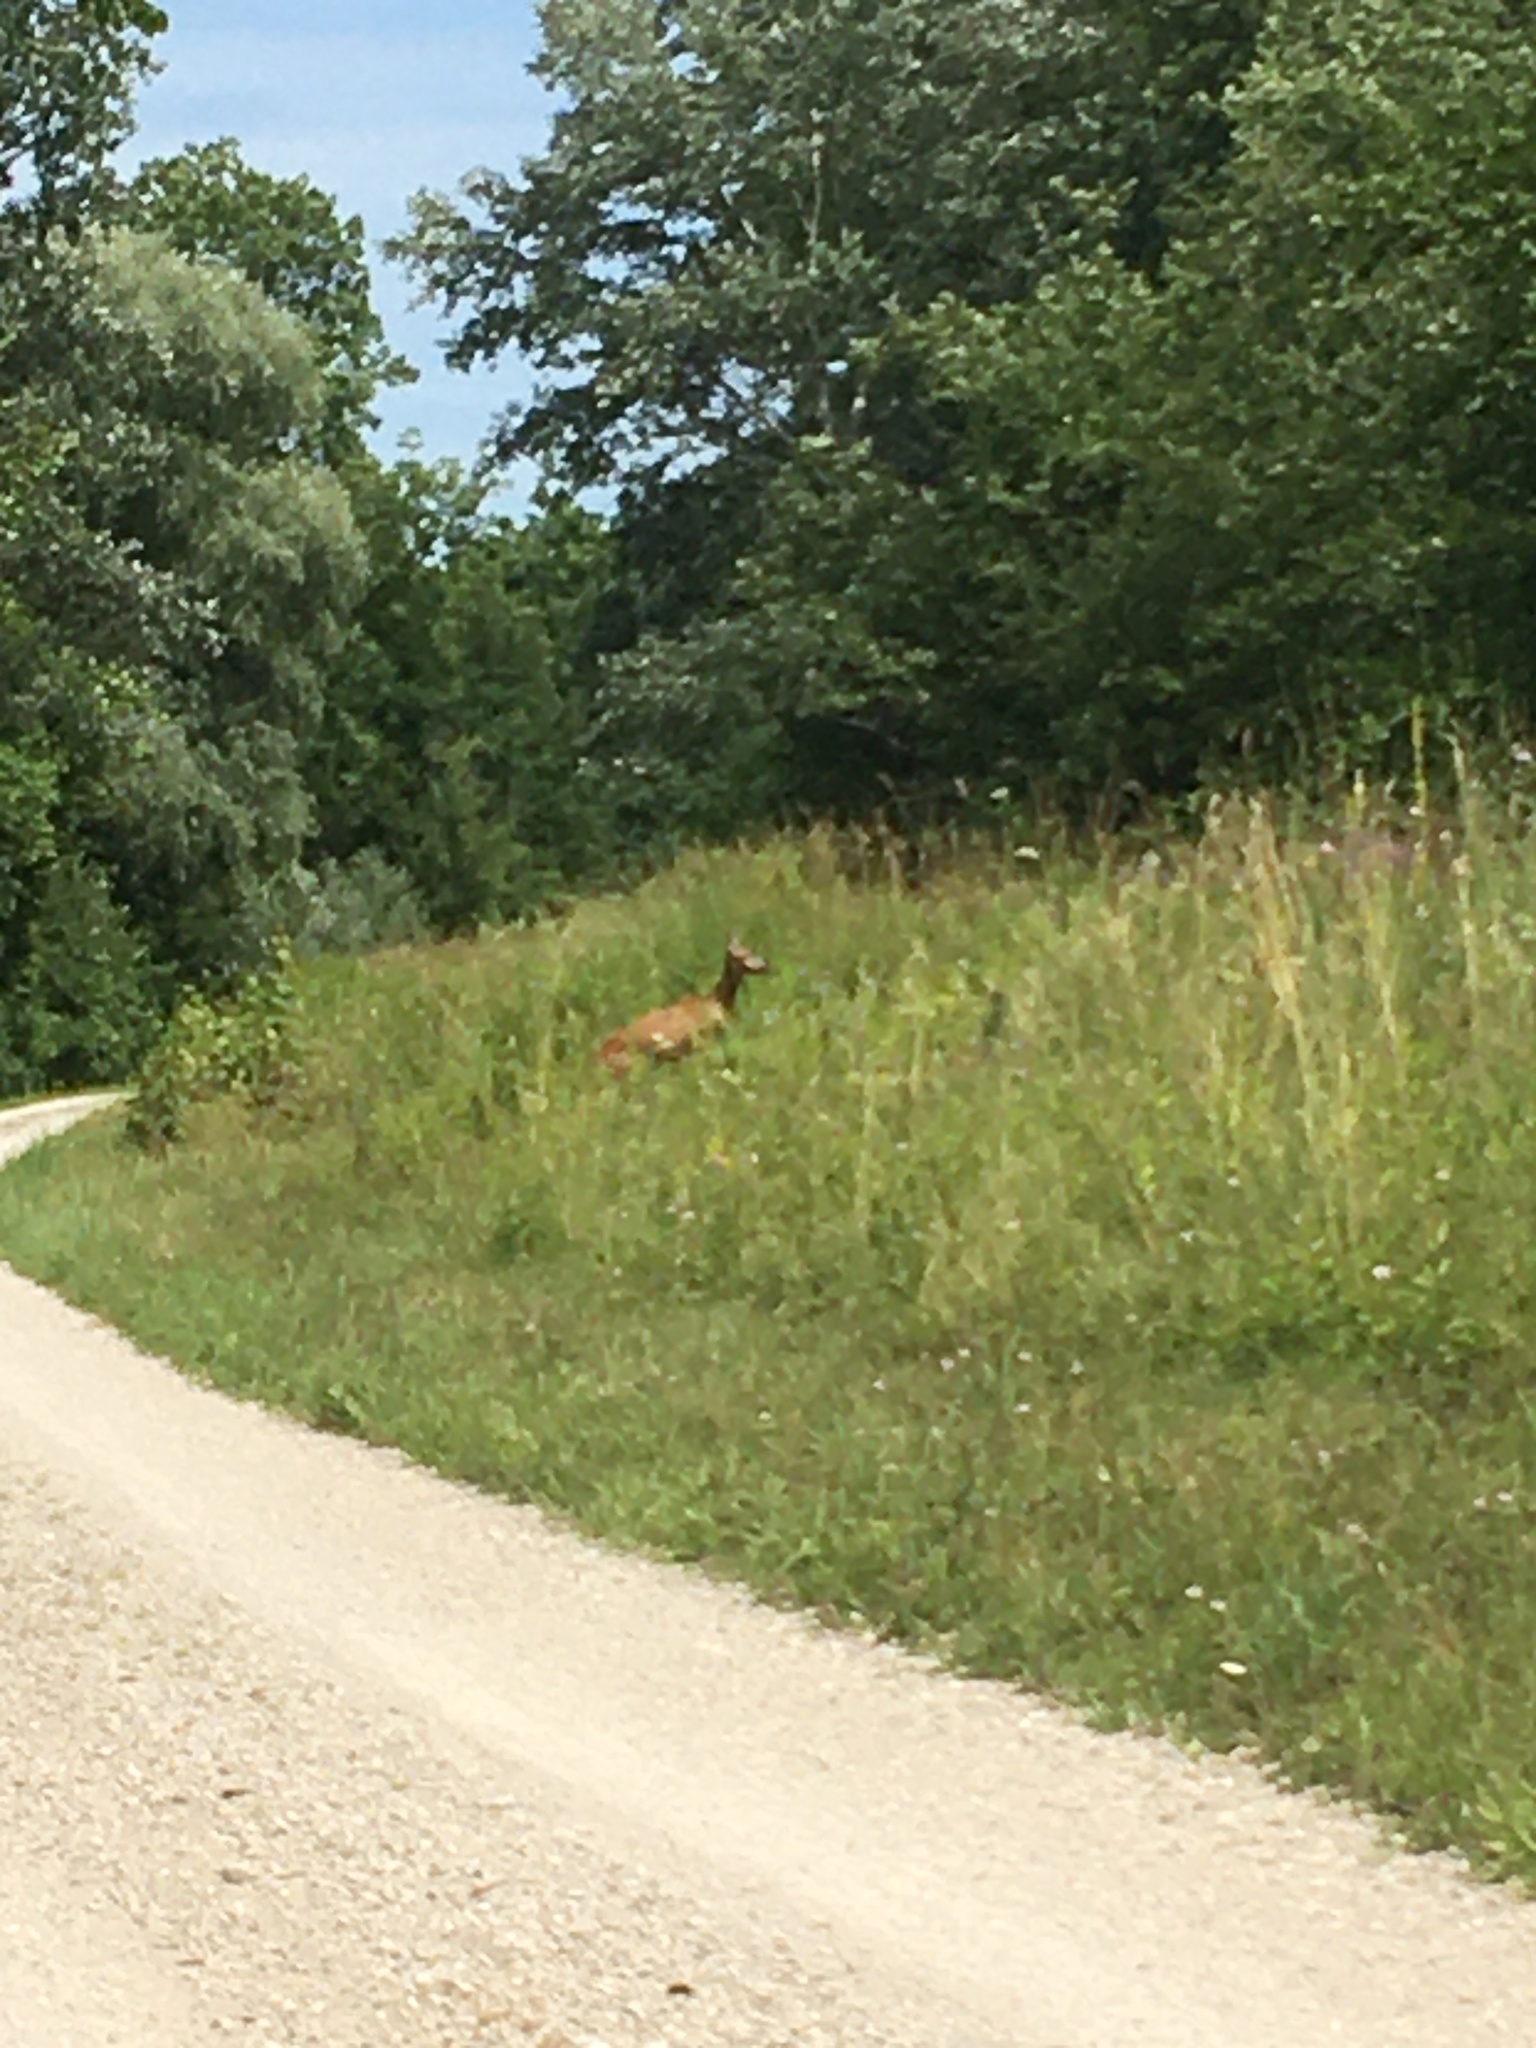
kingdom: Animalia
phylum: Chordata
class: Mammalia
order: Artiodactyla
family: Cervidae
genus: Capreolus
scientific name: Capreolus capreolus
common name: Western roe deer
